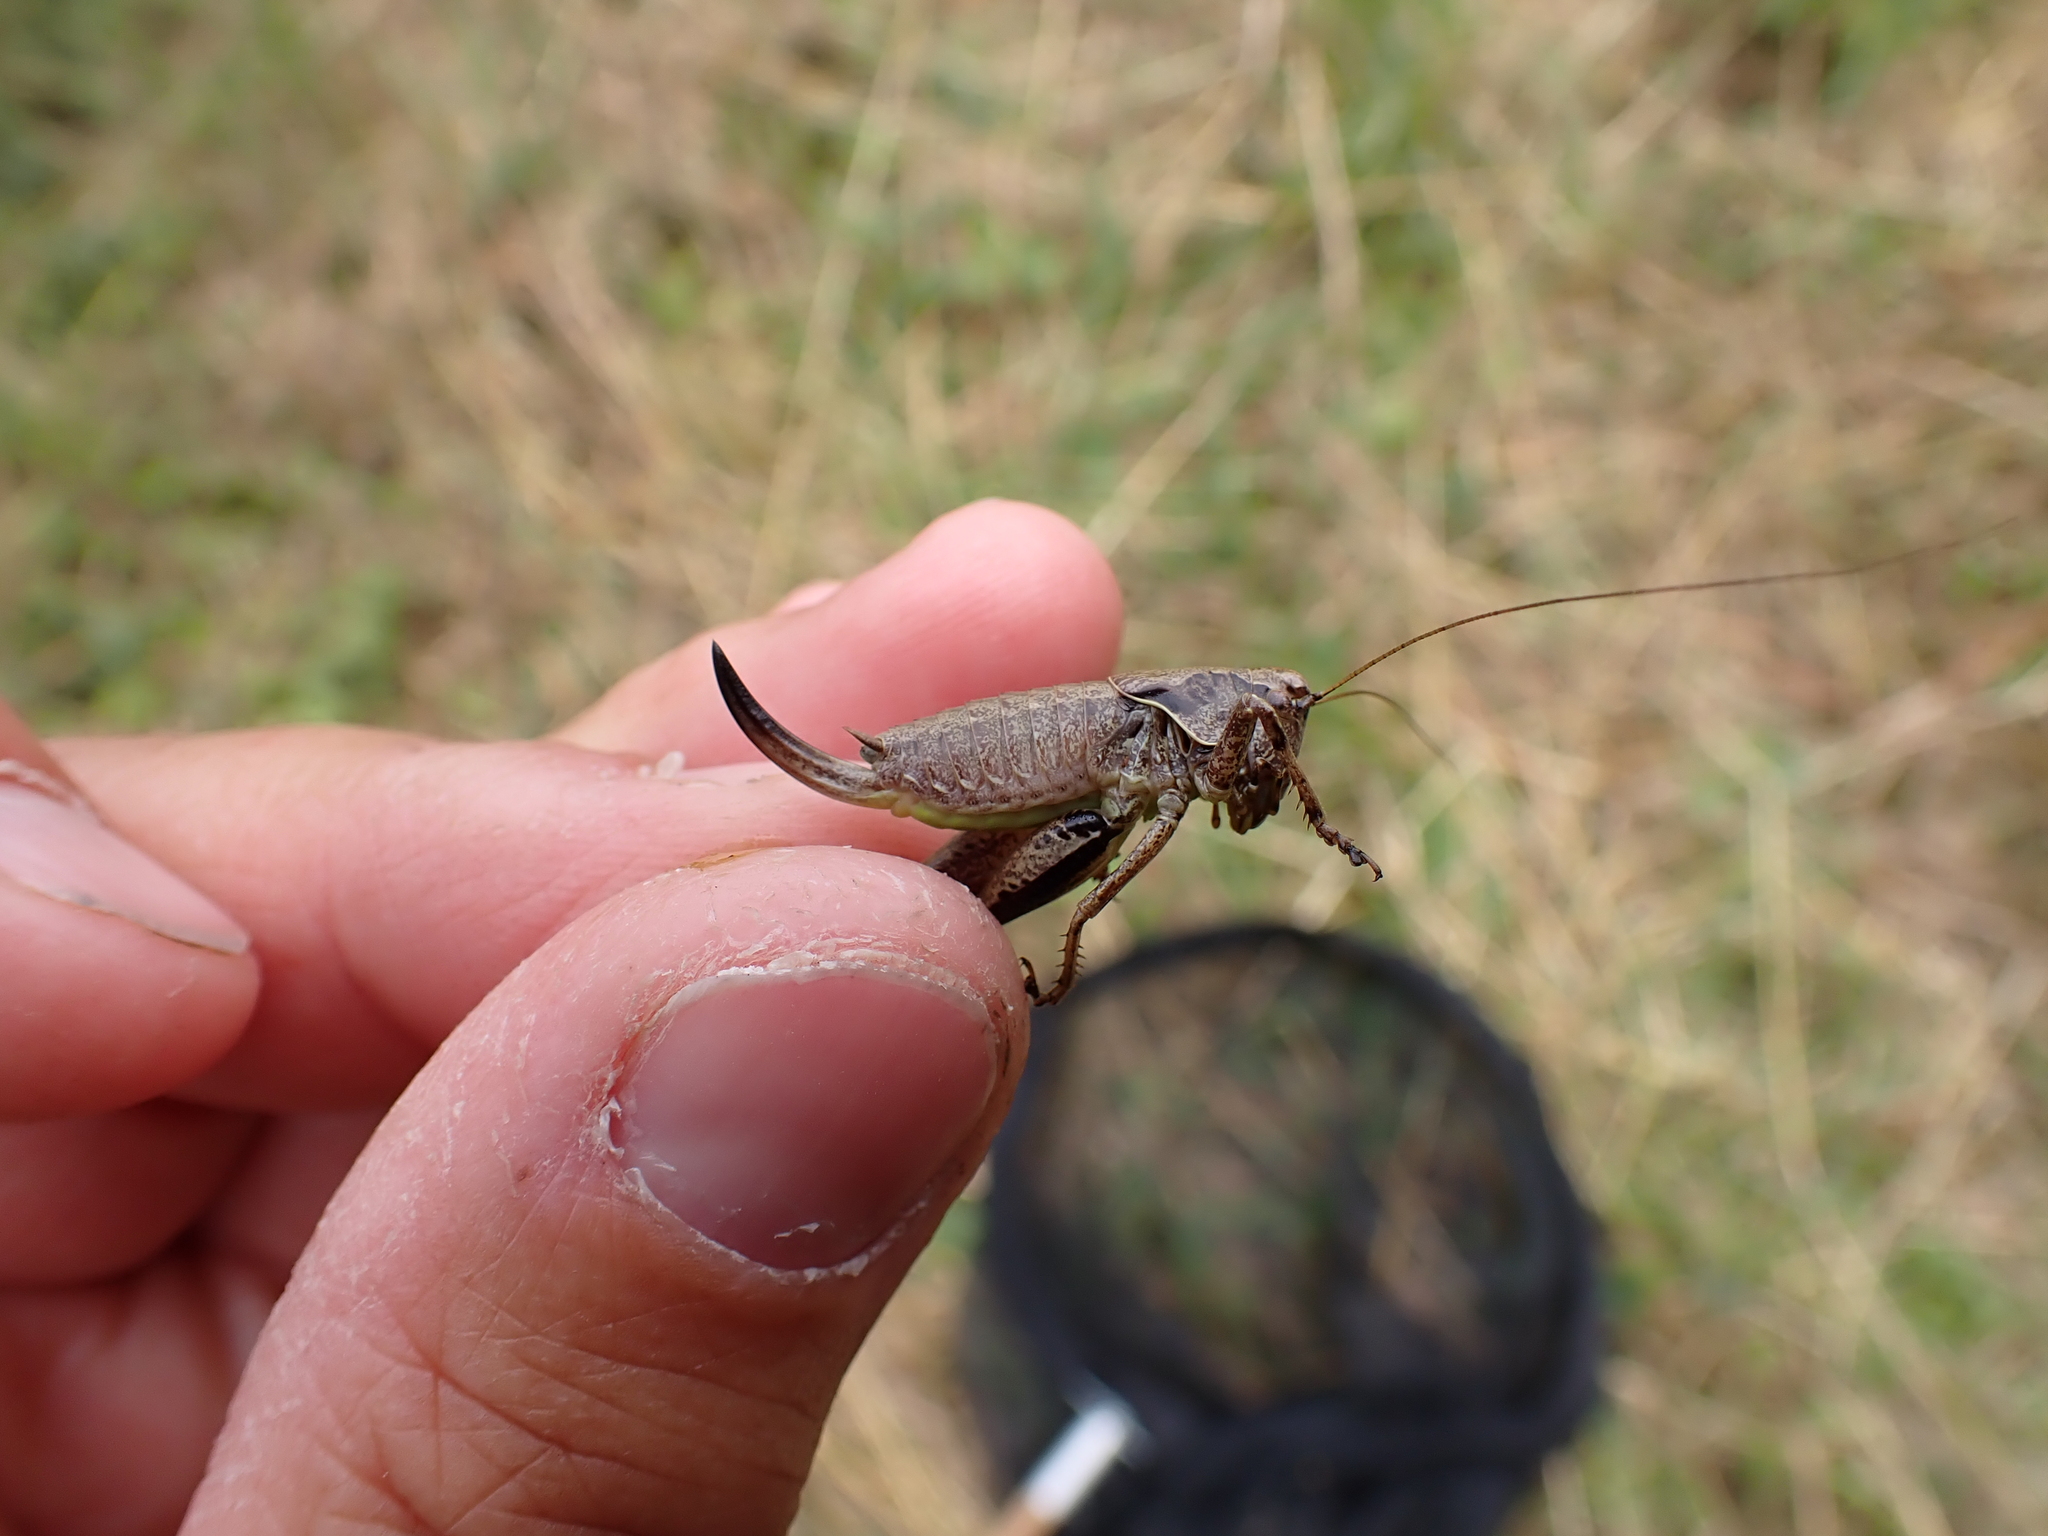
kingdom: Animalia
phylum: Arthropoda
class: Insecta
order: Orthoptera
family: Tettigoniidae
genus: Pholidoptera
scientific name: Pholidoptera griseoaptera
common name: Dark bush-cricket
